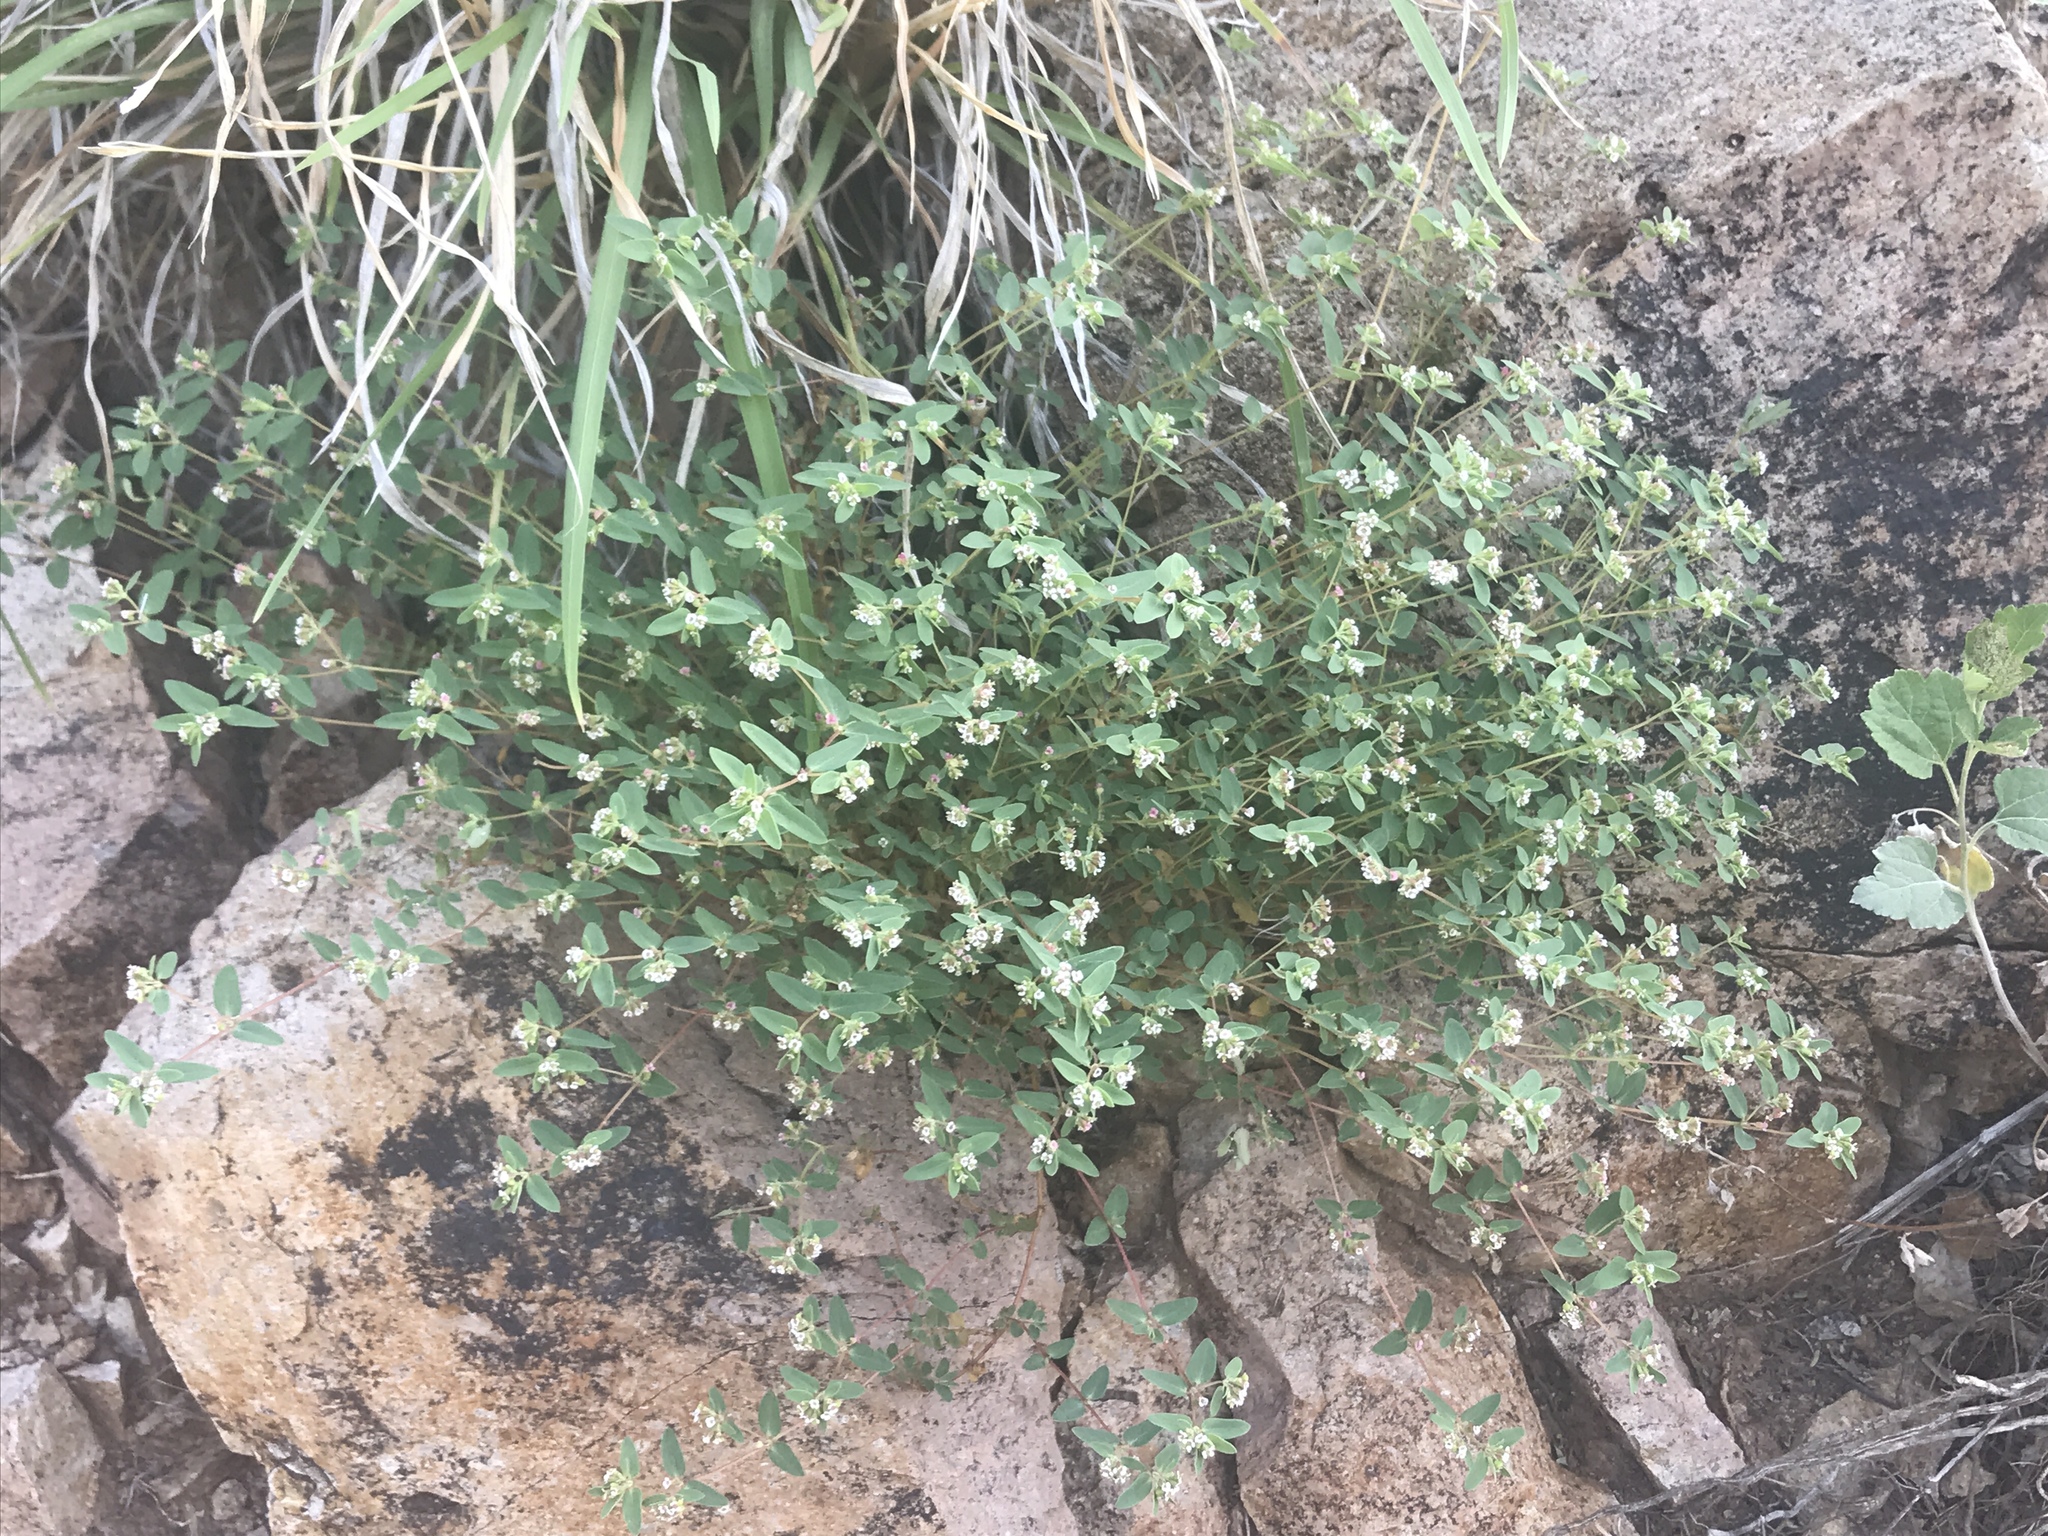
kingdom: Plantae
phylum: Tracheophyta
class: Magnoliopsida
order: Malpighiales
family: Euphorbiaceae
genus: Euphorbia
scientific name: Euphorbia capitellata
